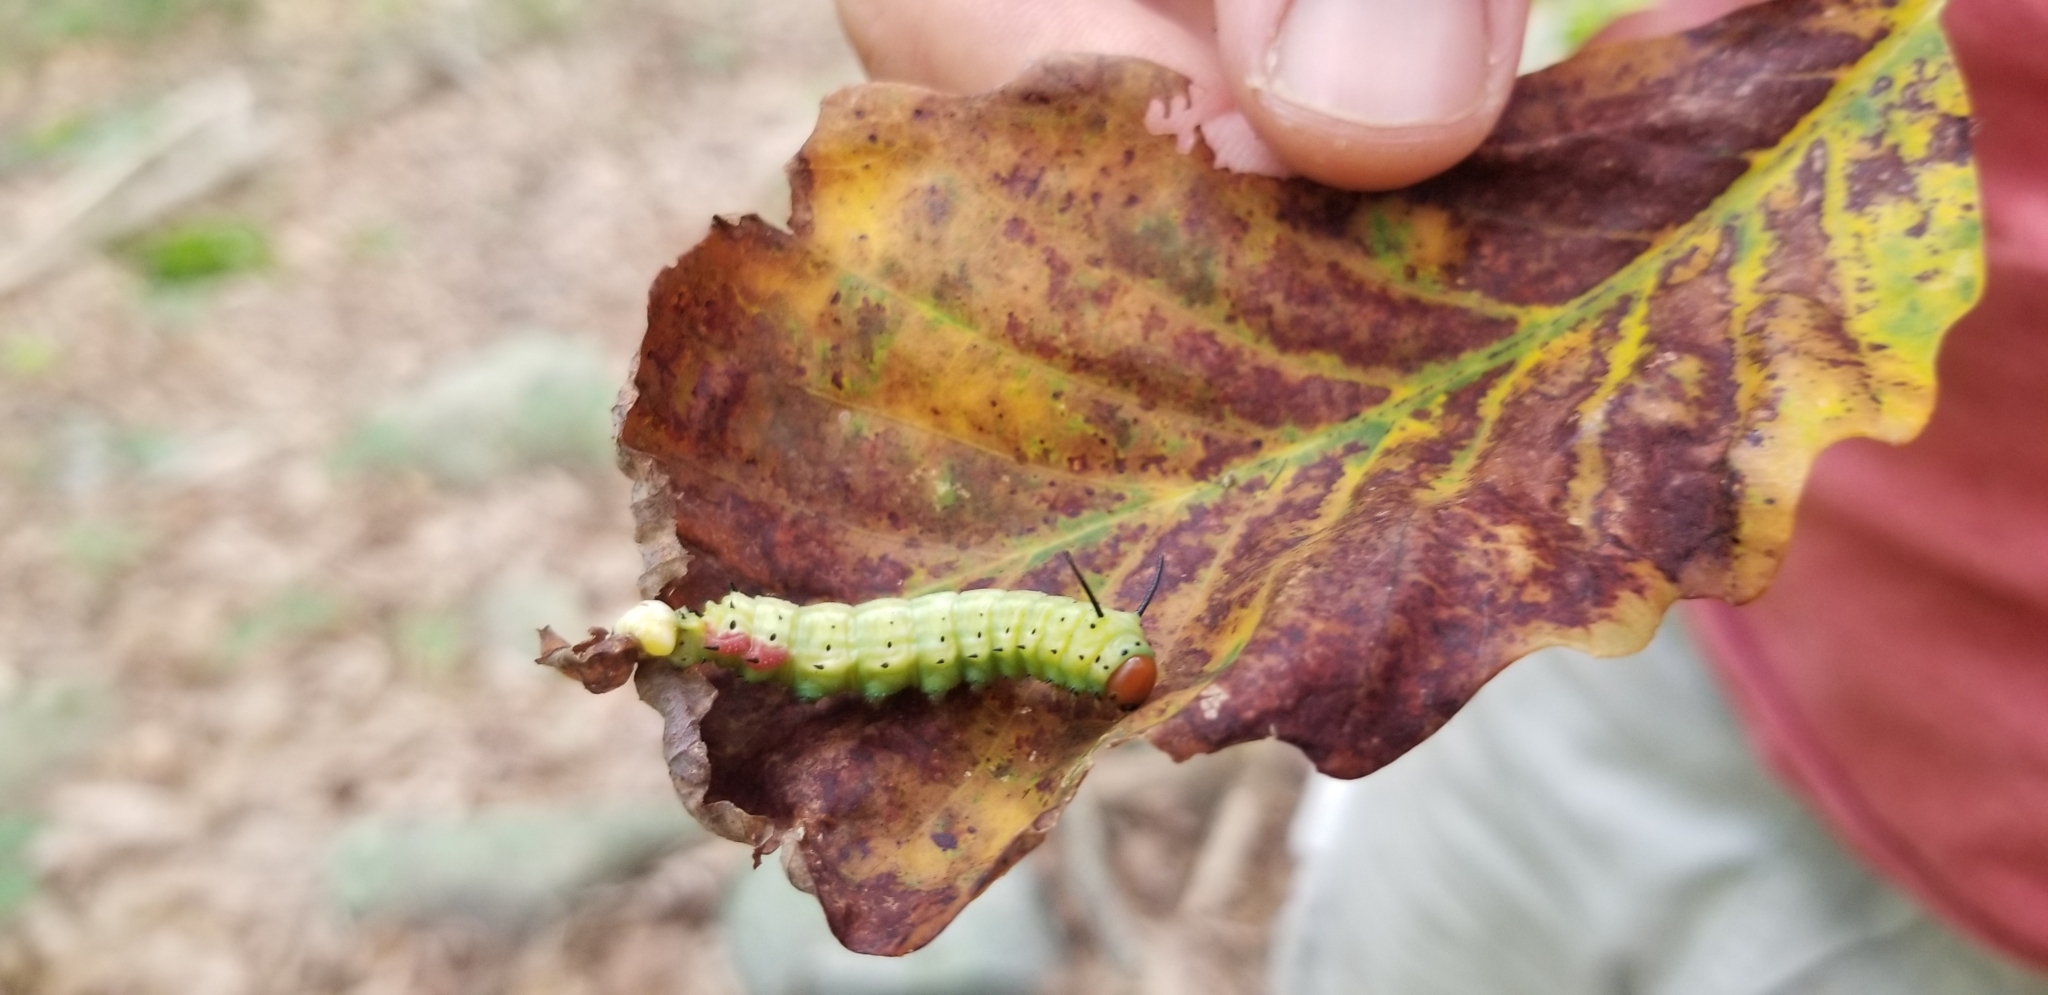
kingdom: Animalia
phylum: Arthropoda
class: Insecta
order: Lepidoptera
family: Saturniidae
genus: Dryocampa
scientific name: Dryocampa rubicunda
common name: Rosy maple moth
